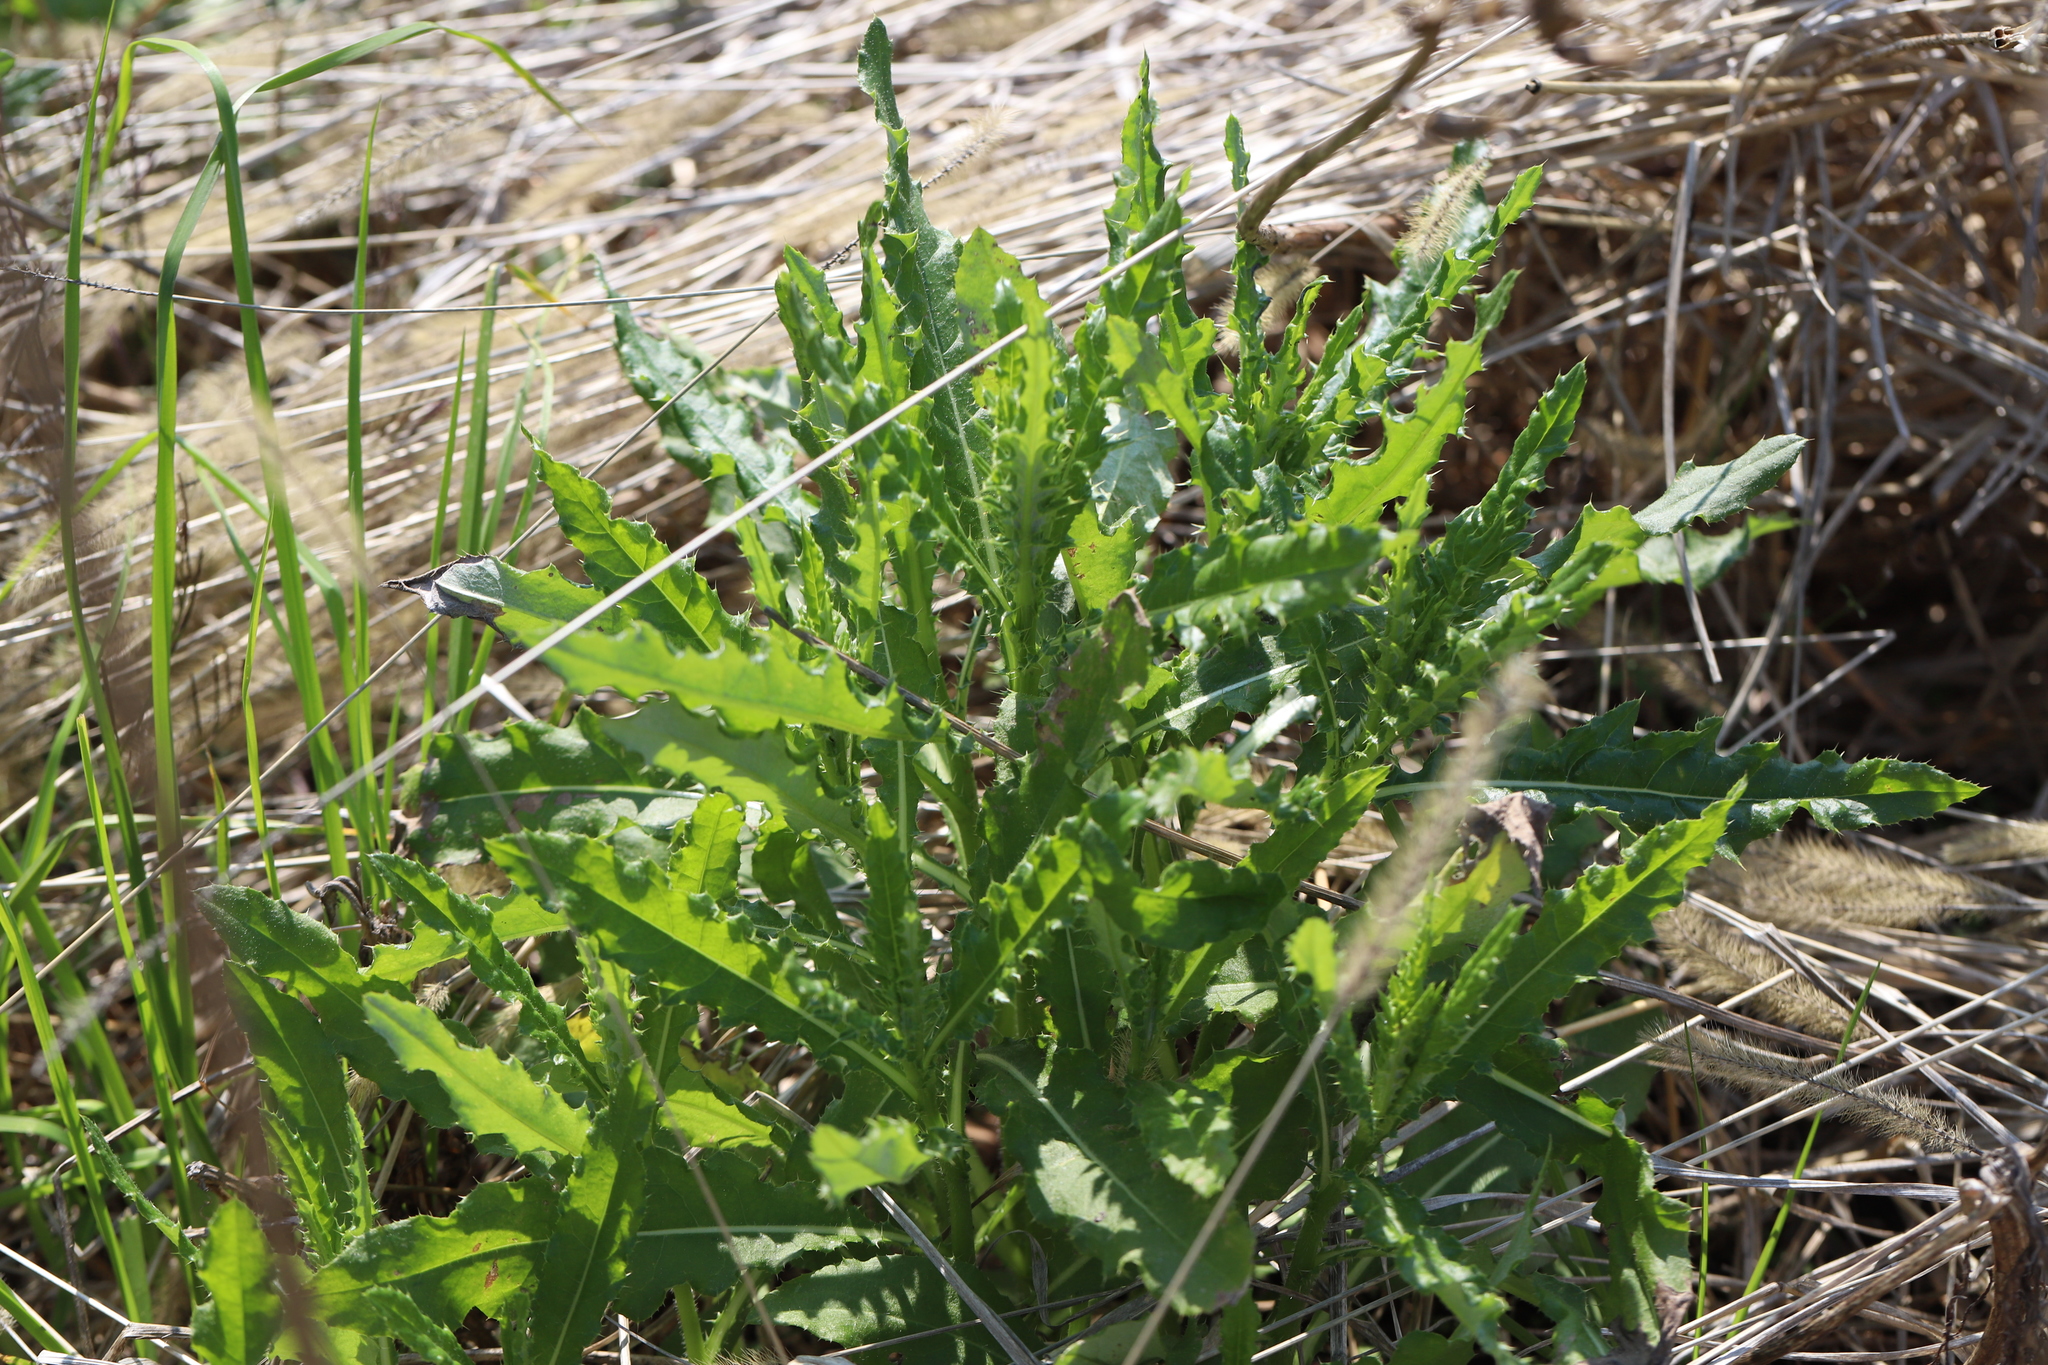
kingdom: Plantae
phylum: Tracheophyta
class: Magnoliopsida
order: Asterales
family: Asteraceae
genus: Cirsium
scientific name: Cirsium arvense
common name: Creeping thistle
